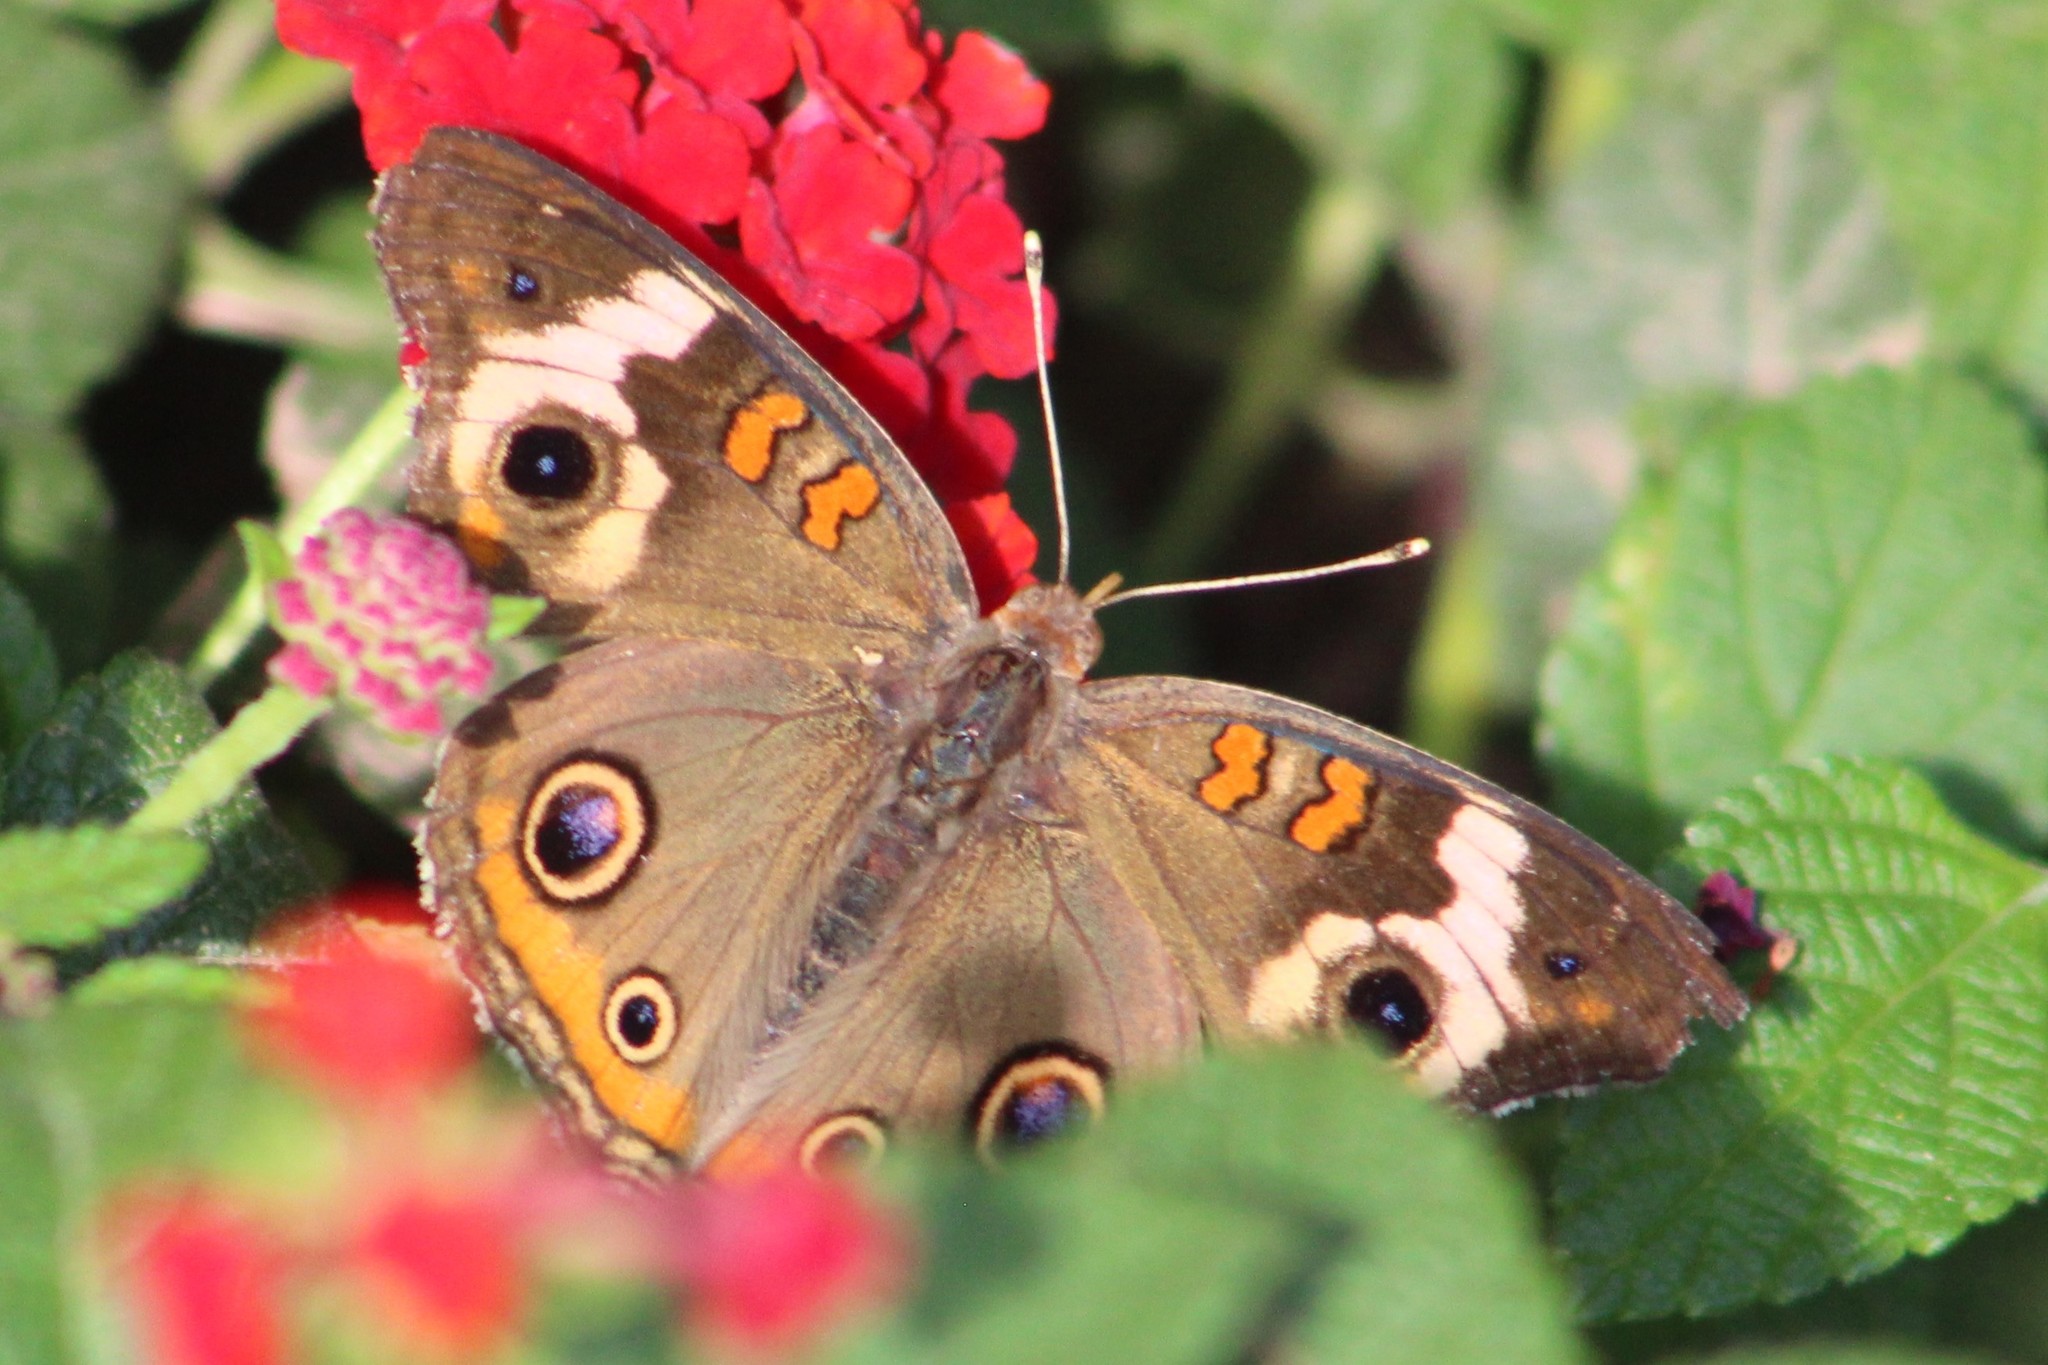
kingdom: Animalia
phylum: Arthropoda
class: Insecta
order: Lepidoptera
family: Nymphalidae
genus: Junonia
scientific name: Junonia coenia
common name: Common buckeye
